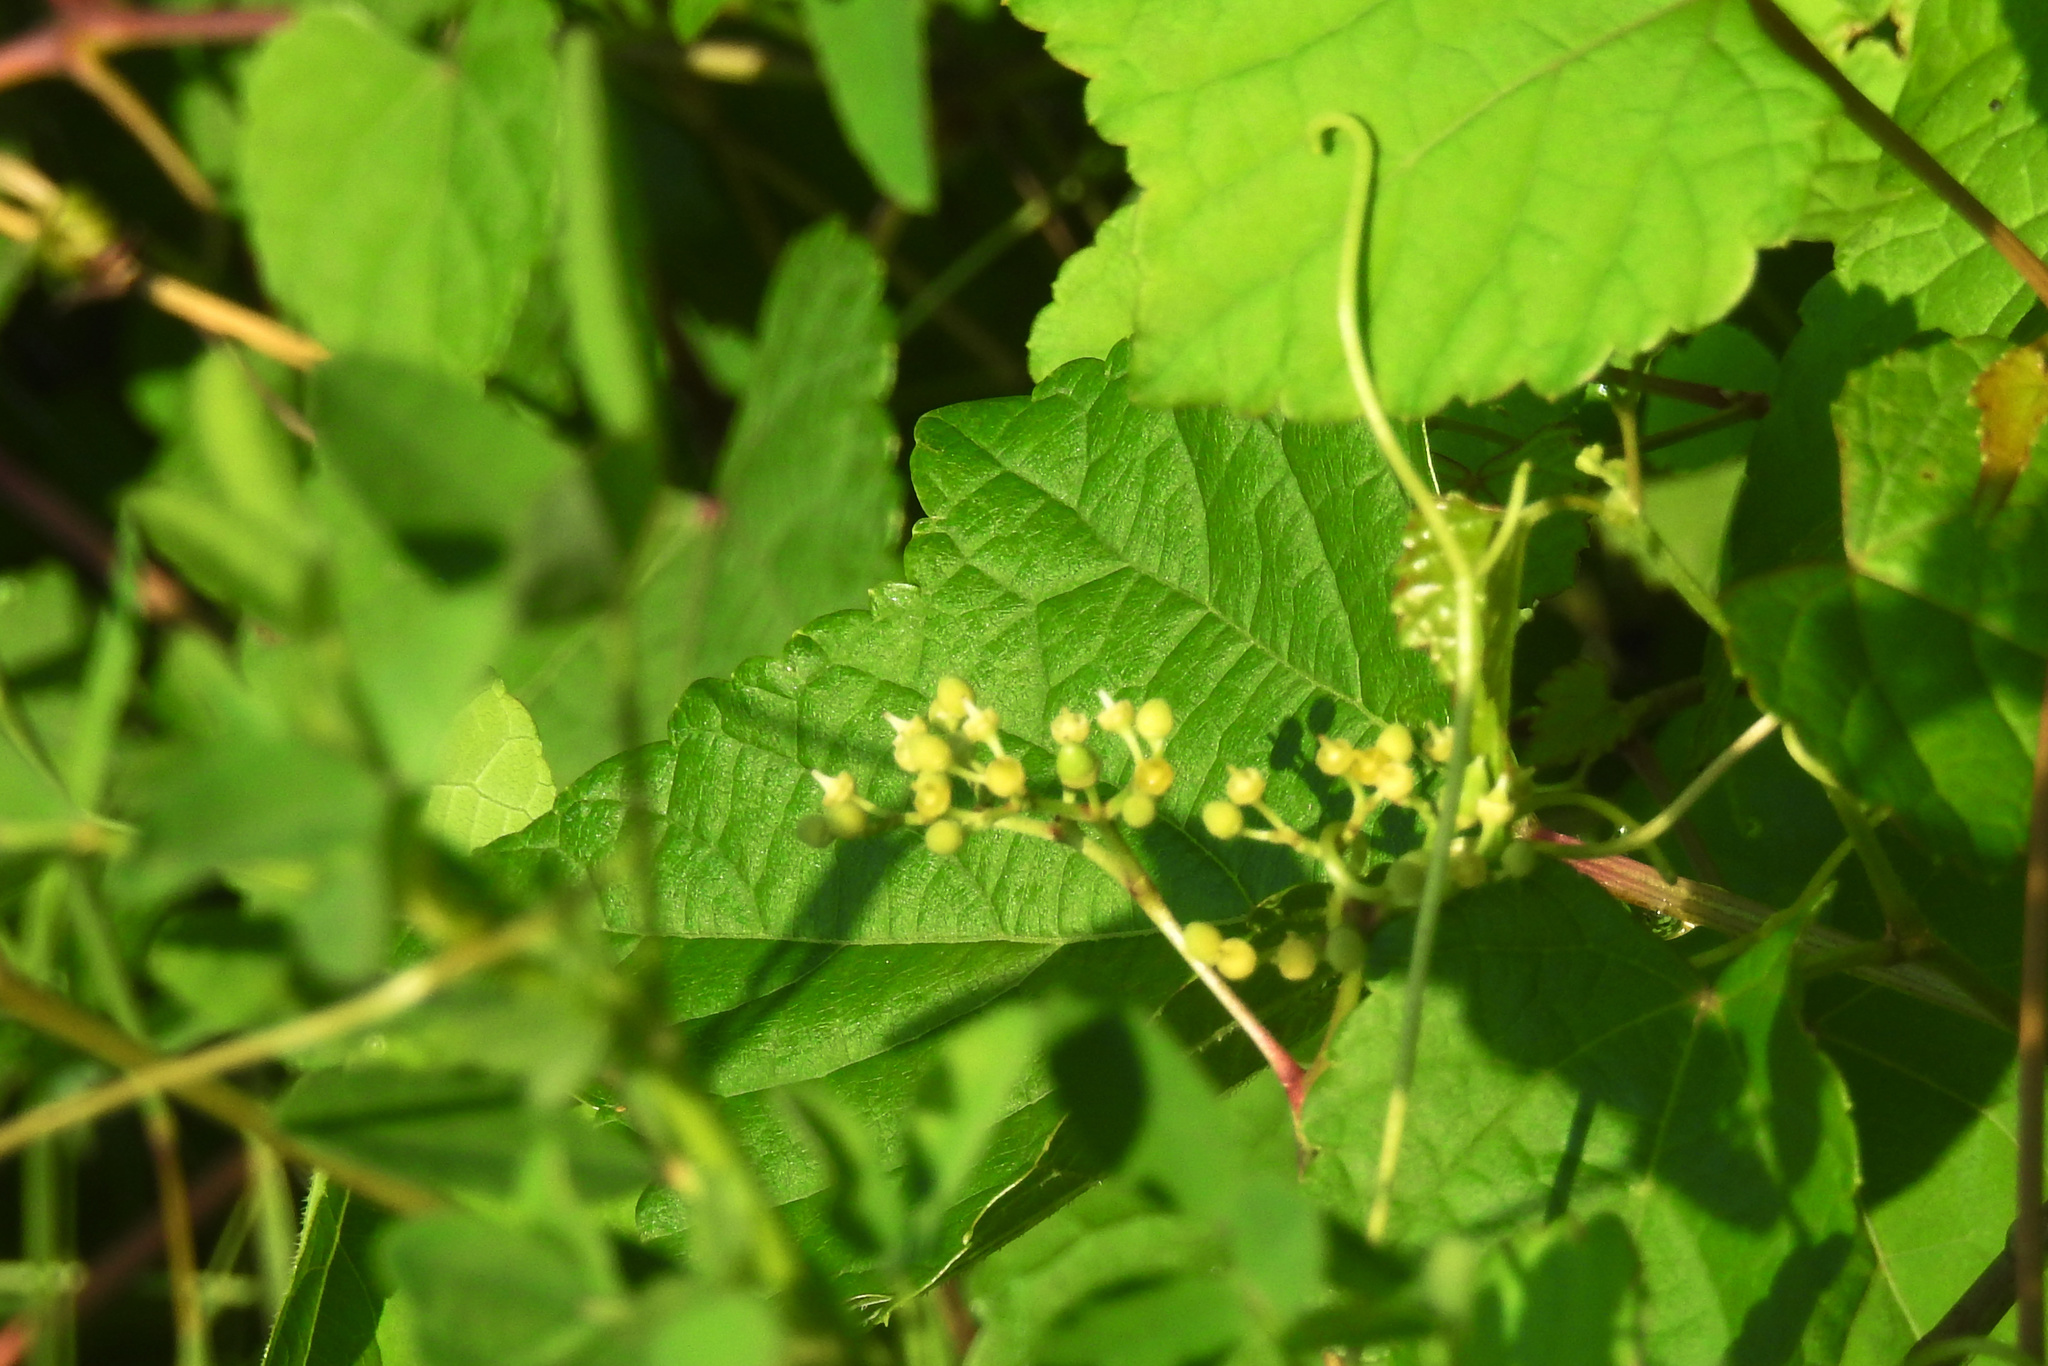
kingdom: Plantae
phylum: Tracheophyta
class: Magnoliopsida
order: Vitales
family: Vitaceae
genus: Ampelopsis
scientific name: Ampelopsis glandulosa
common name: Amur peppervine
